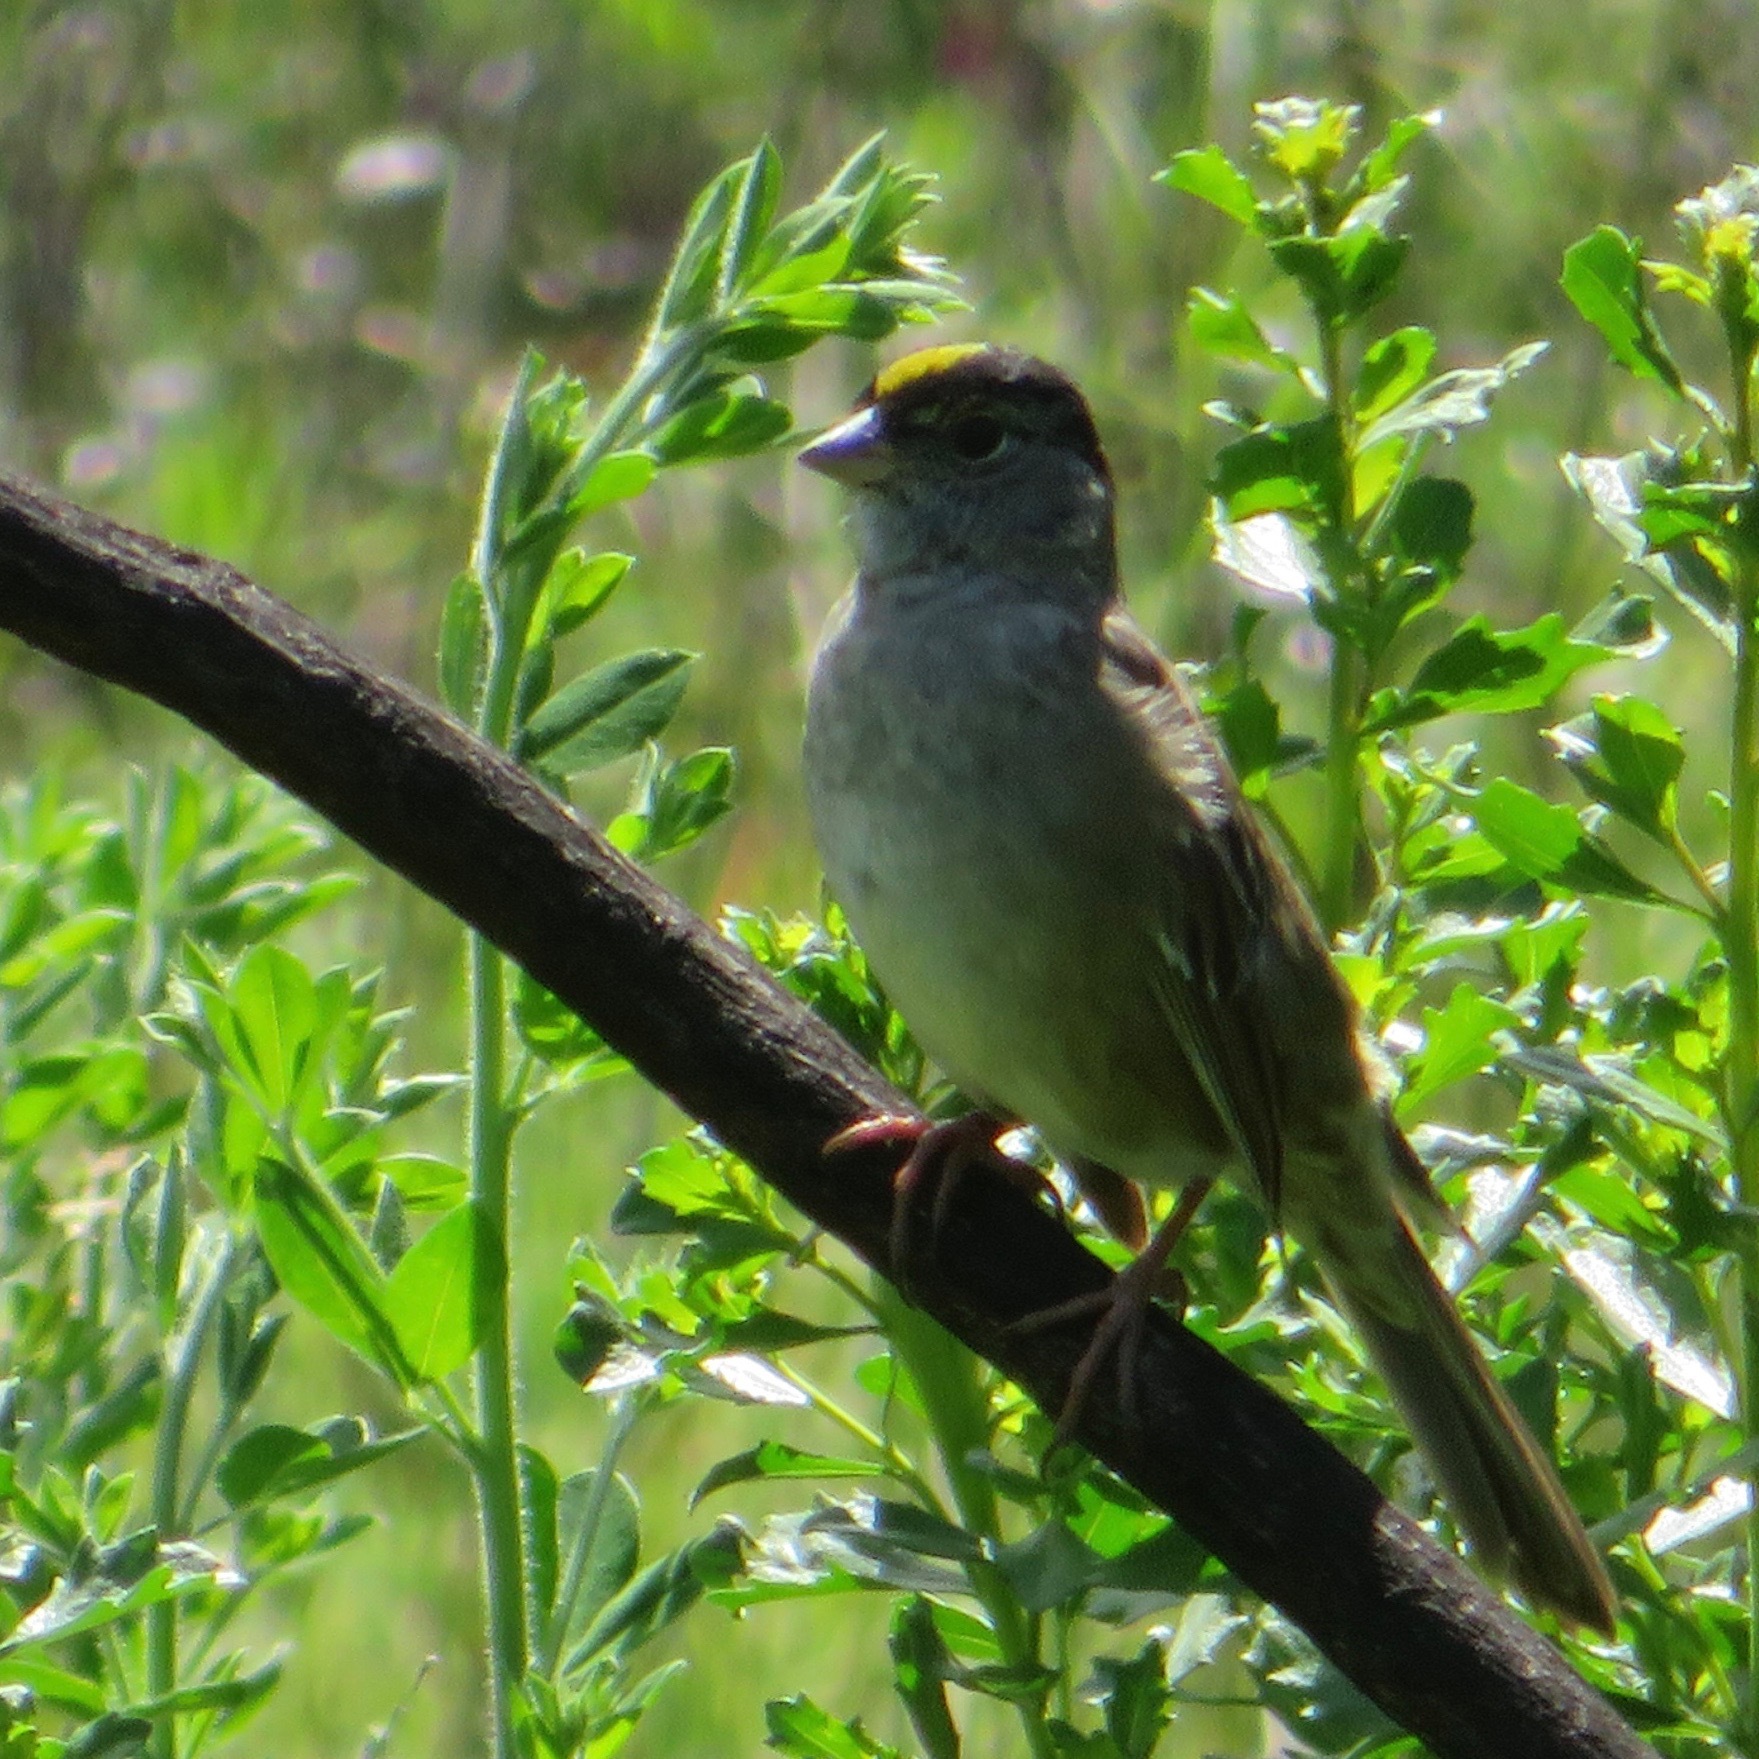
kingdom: Animalia
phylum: Chordata
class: Aves
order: Passeriformes
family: Passerellidae
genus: Zonotrichia
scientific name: Zonotrichia atricapilla
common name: Golden-crowned sparrow
